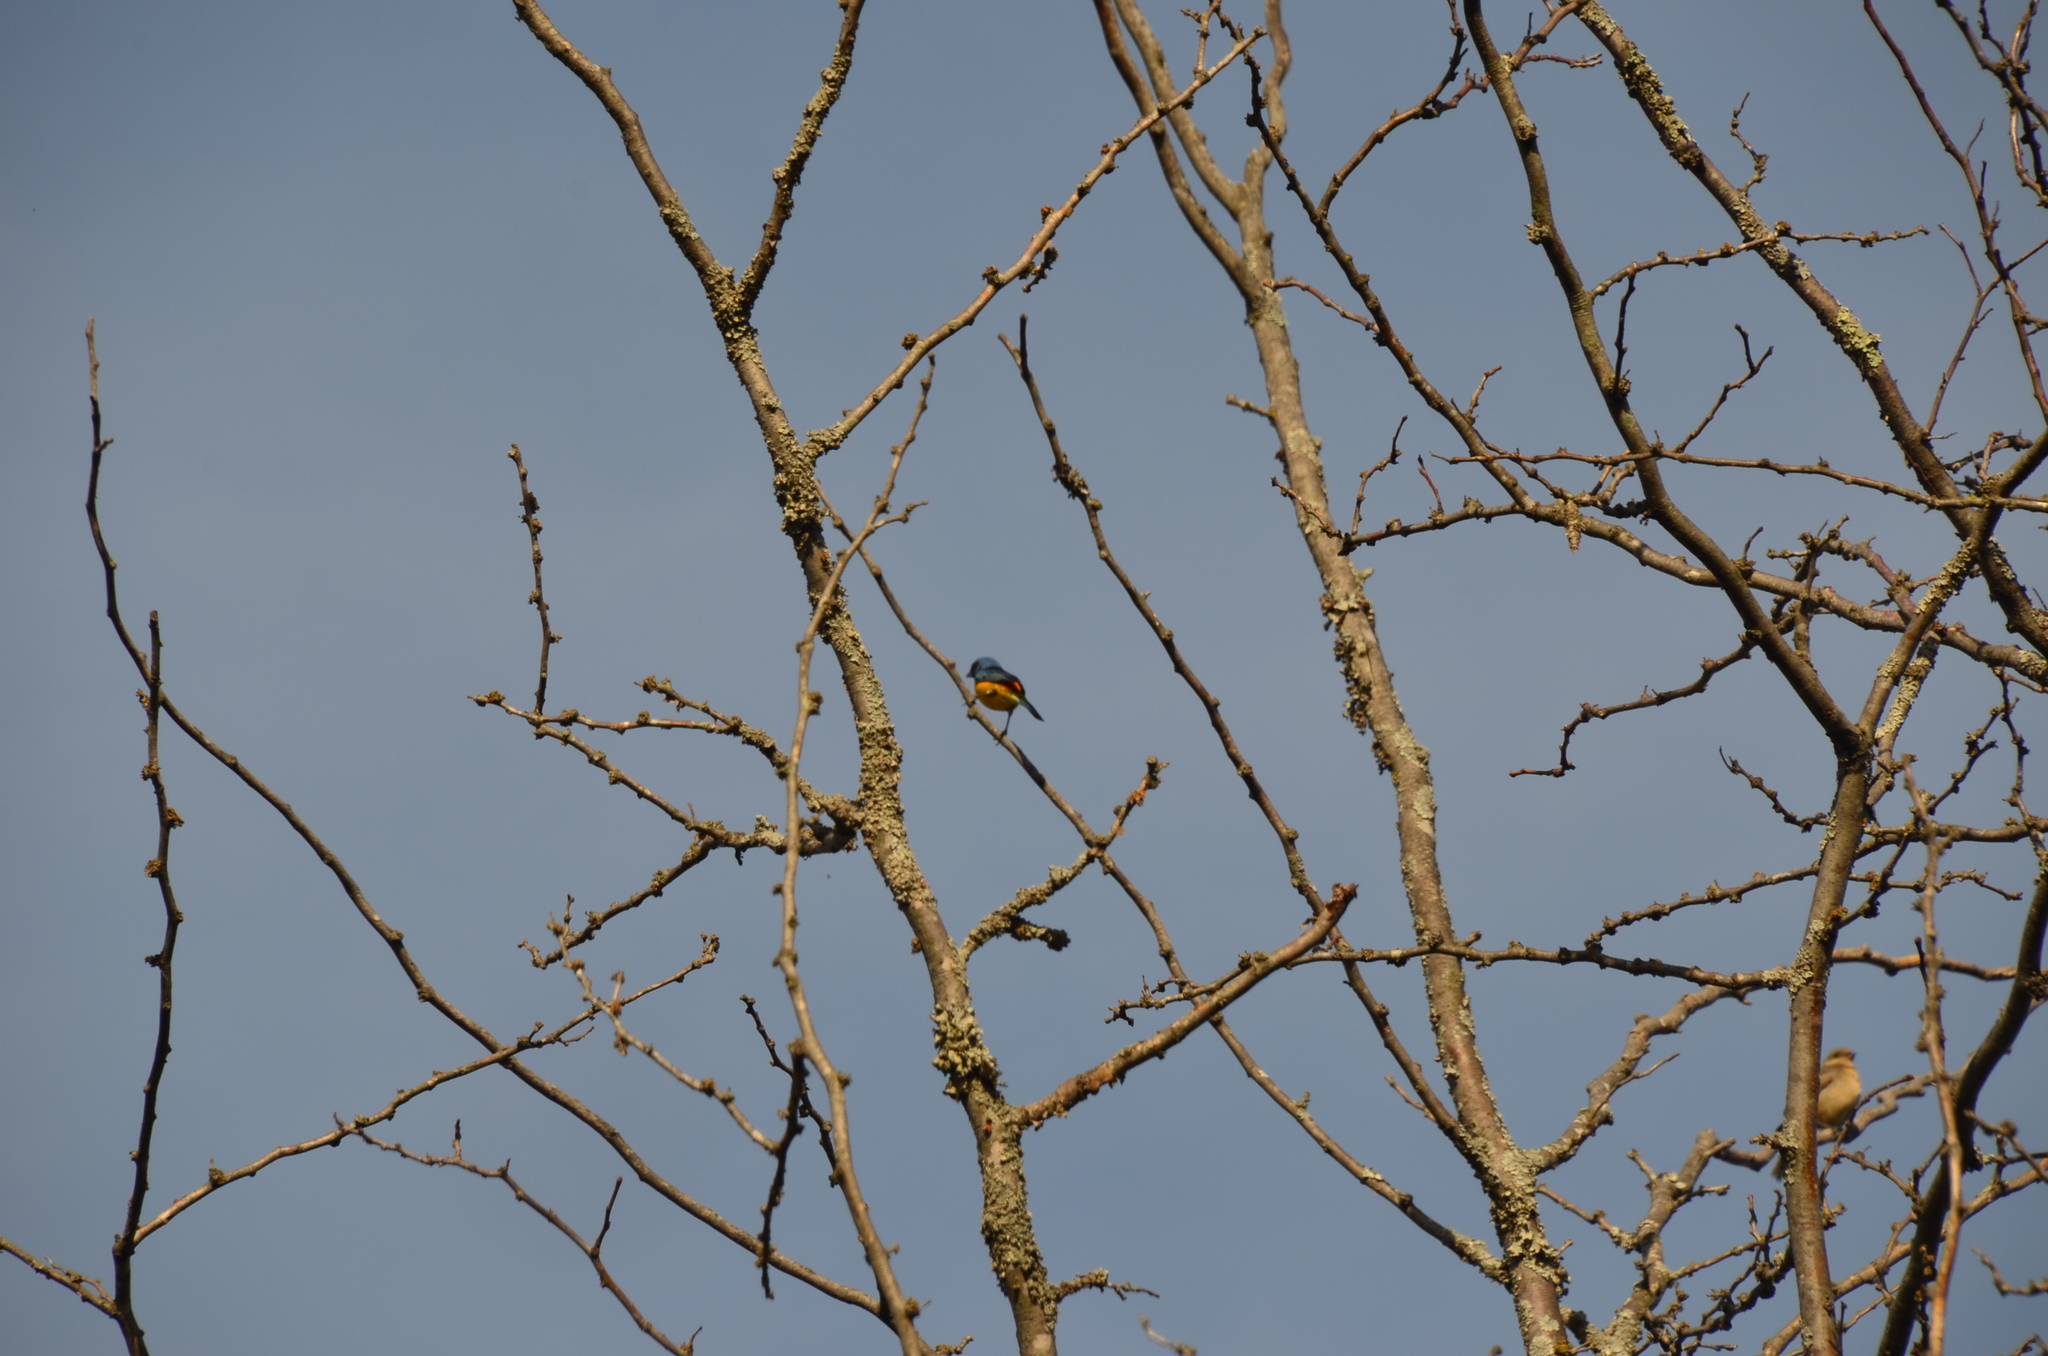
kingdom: Animalia
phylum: Chordata
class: Aves
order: Passeriformes
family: Thraupidae
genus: Rauenia
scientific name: Rauenia bonariensis
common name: Blue-and-yellow tanager
